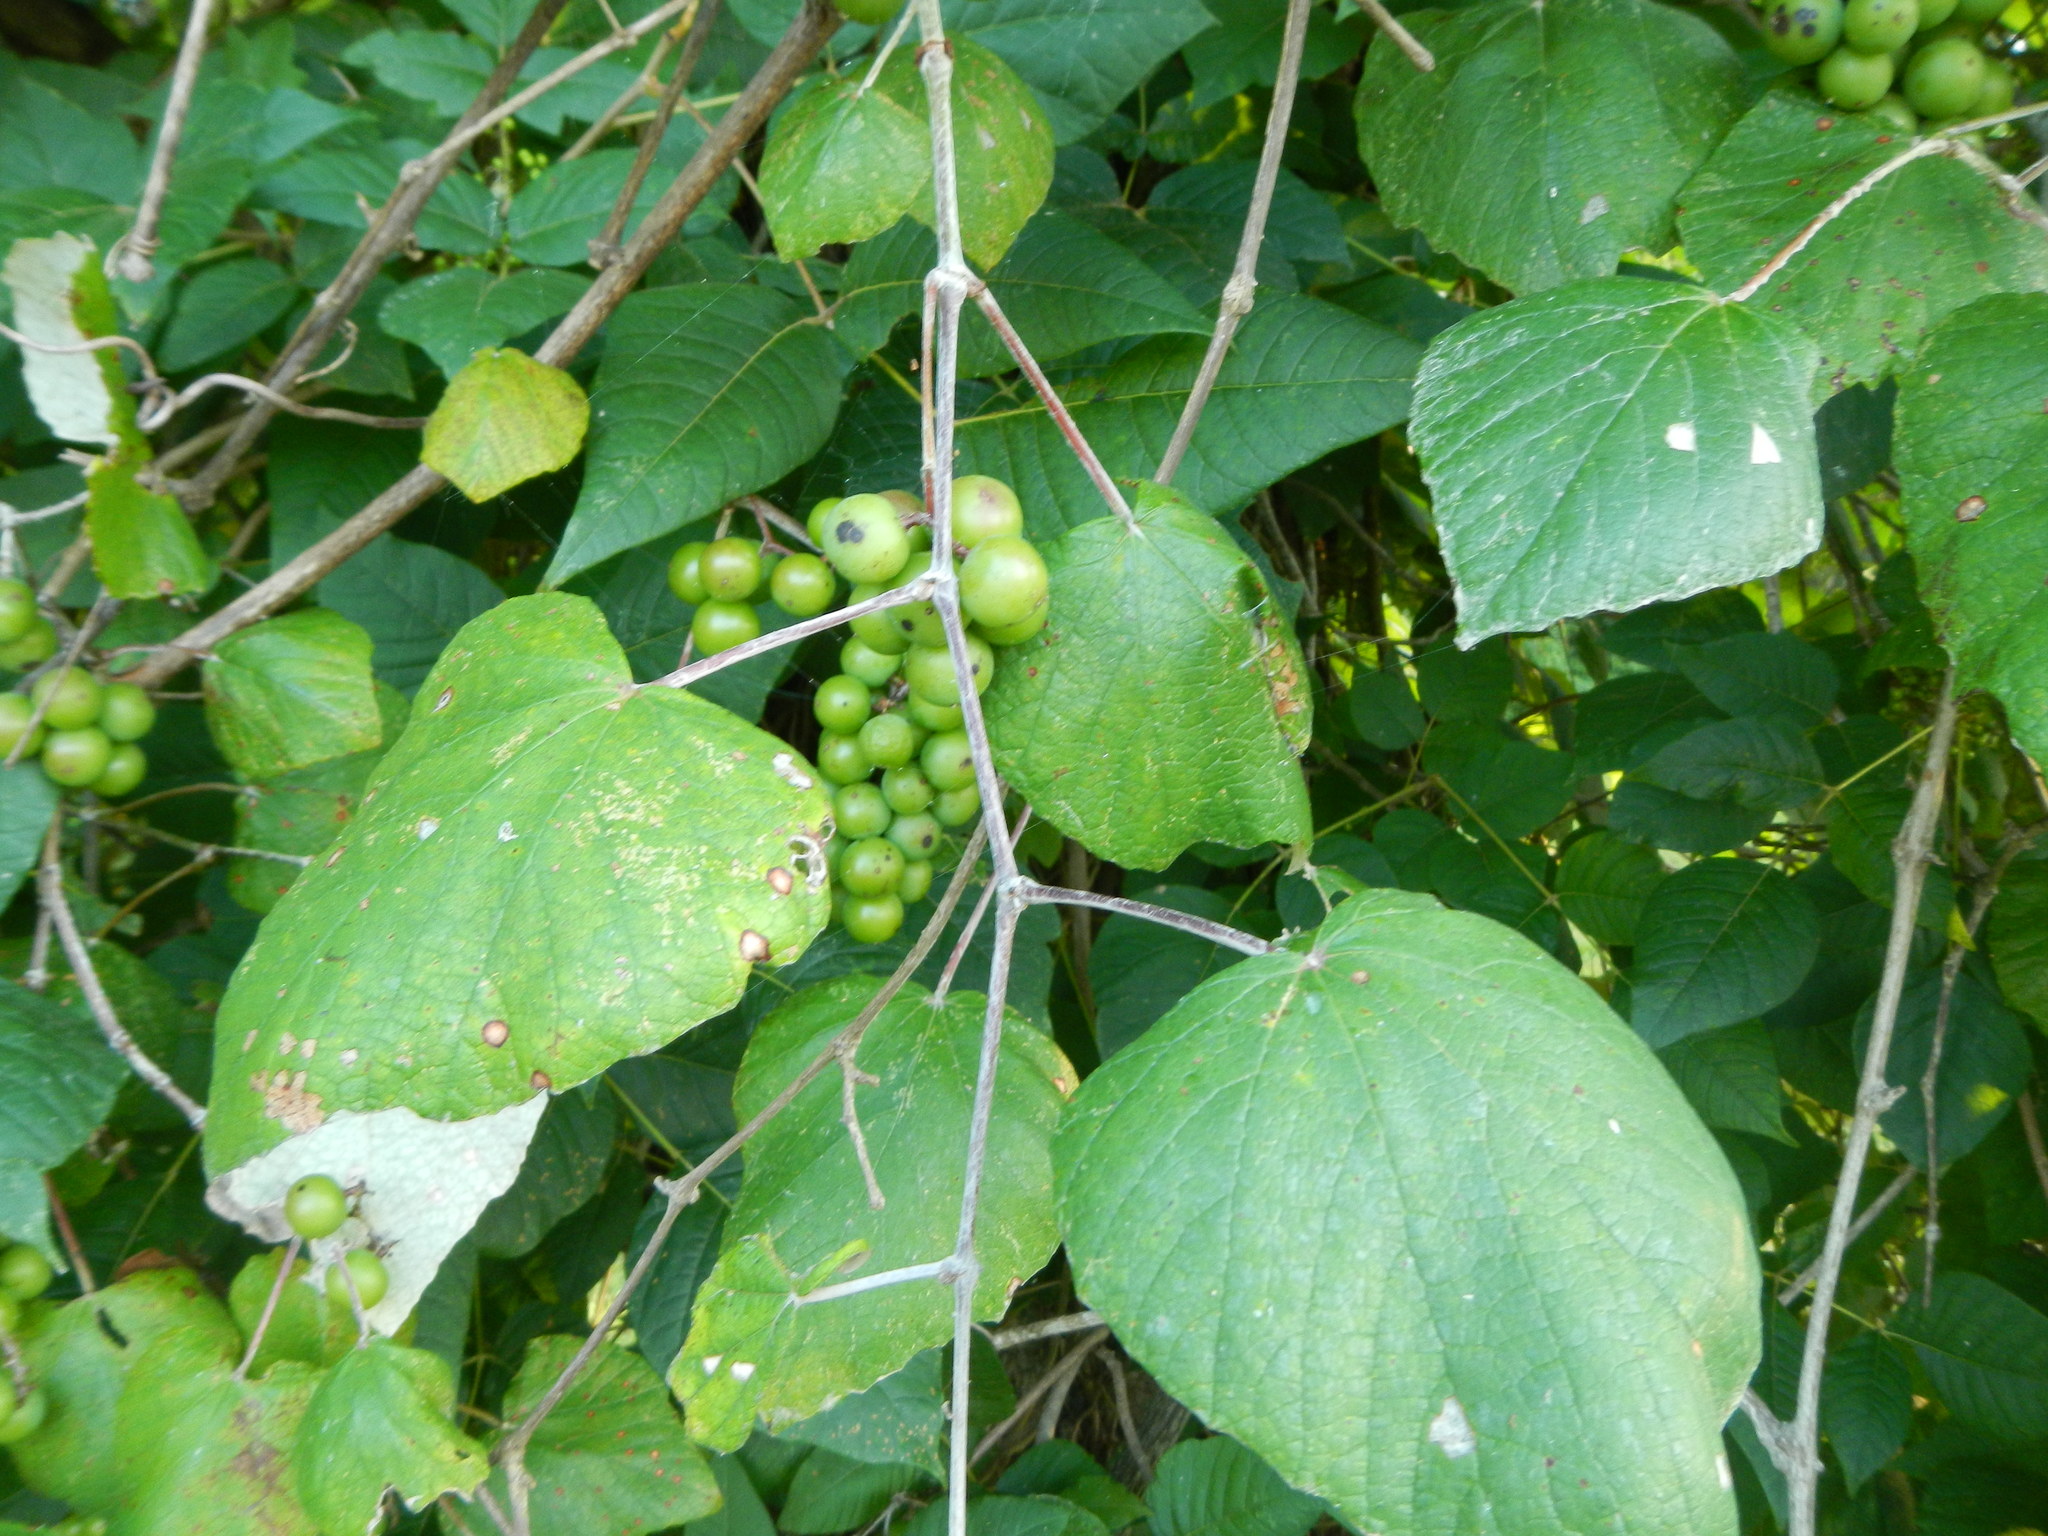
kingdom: Plantae
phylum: Tracheophyta
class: Magnoliopsida
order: Vitales
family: Vitaceae
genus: Vitis
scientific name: Vitis mustangensis
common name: Mustang grape
